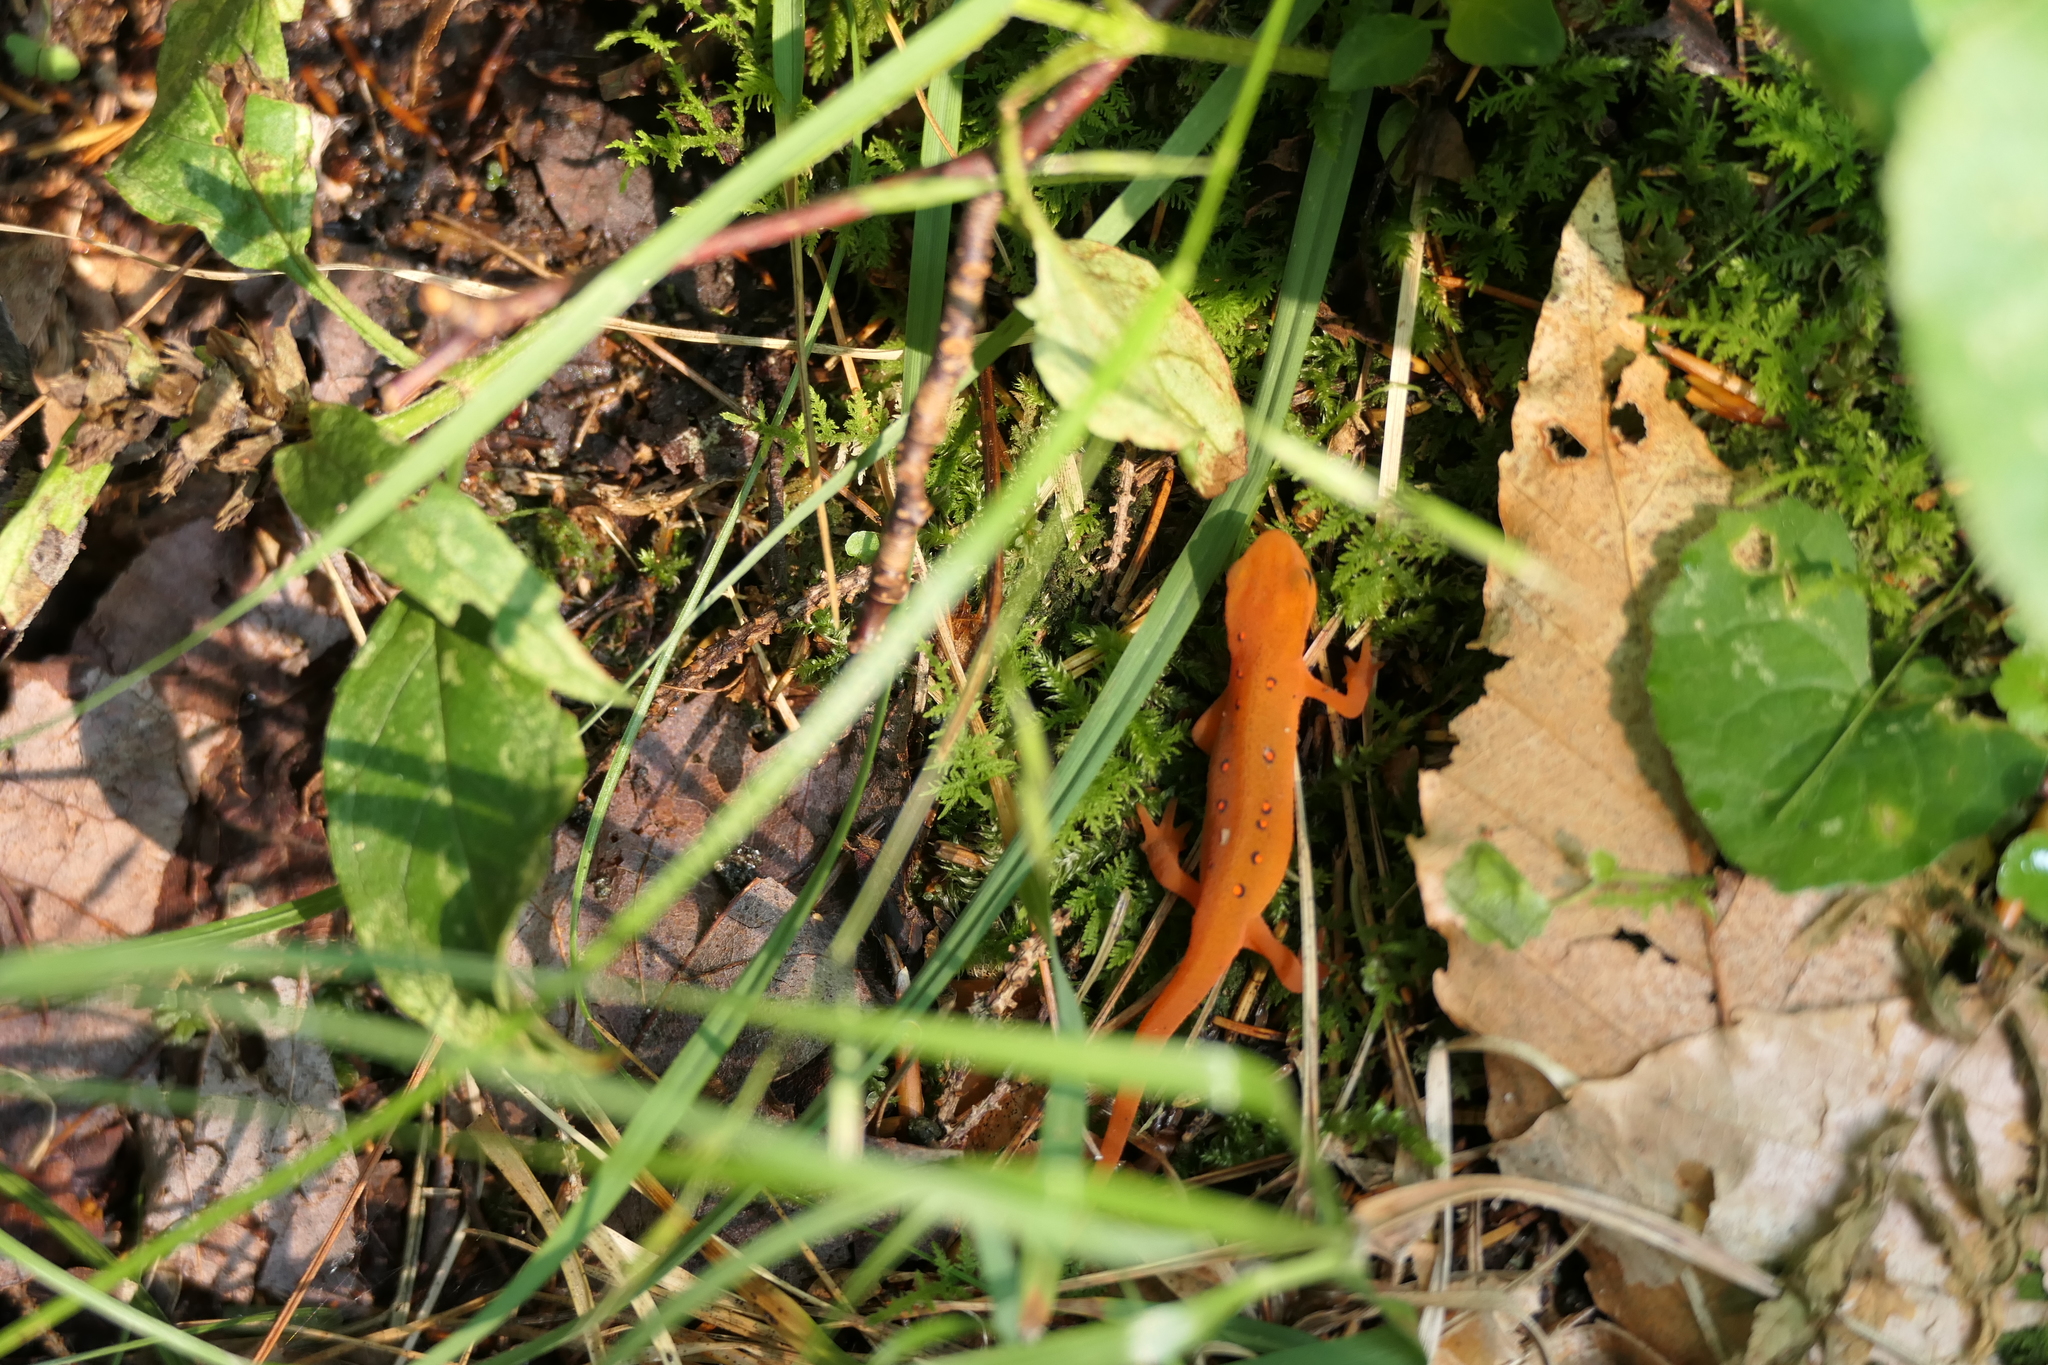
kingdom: Animalia
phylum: Chordata
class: Amphibia
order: Caudata
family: Salamandridae
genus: Notophthalmus
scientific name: Notophthalmus viridescens
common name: Eastern newt
